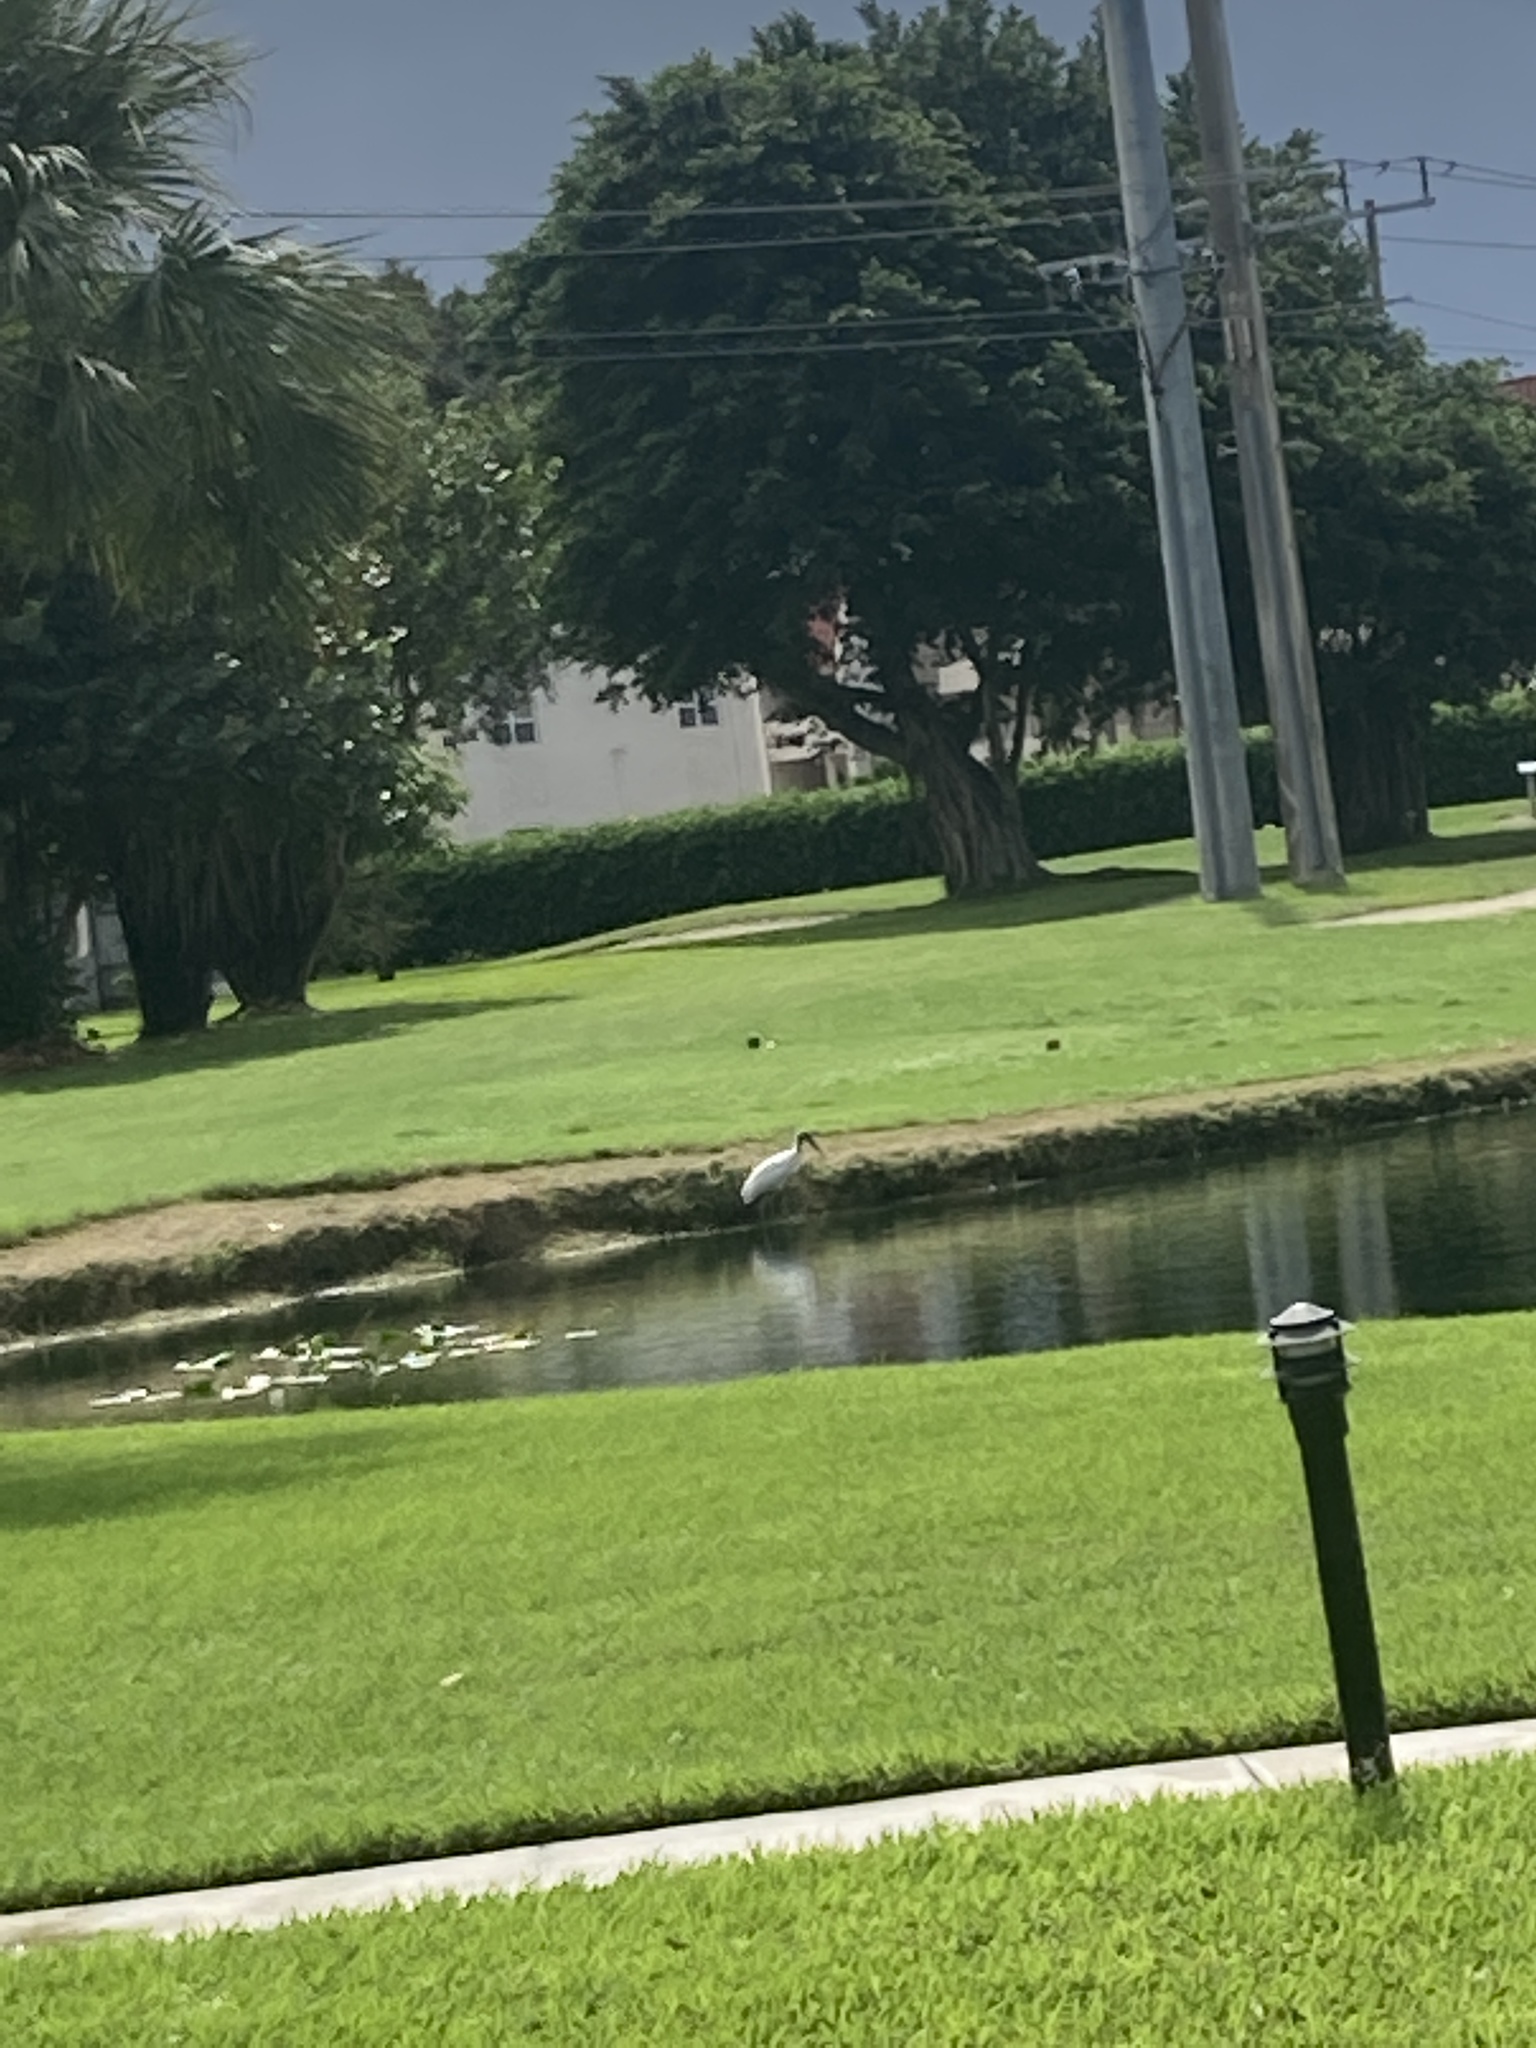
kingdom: Animalia
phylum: Chordata
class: Aves
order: Ciconiiformes
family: Ciconiidae
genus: Mycteria
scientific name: Mycteria americana
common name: Wood stork
